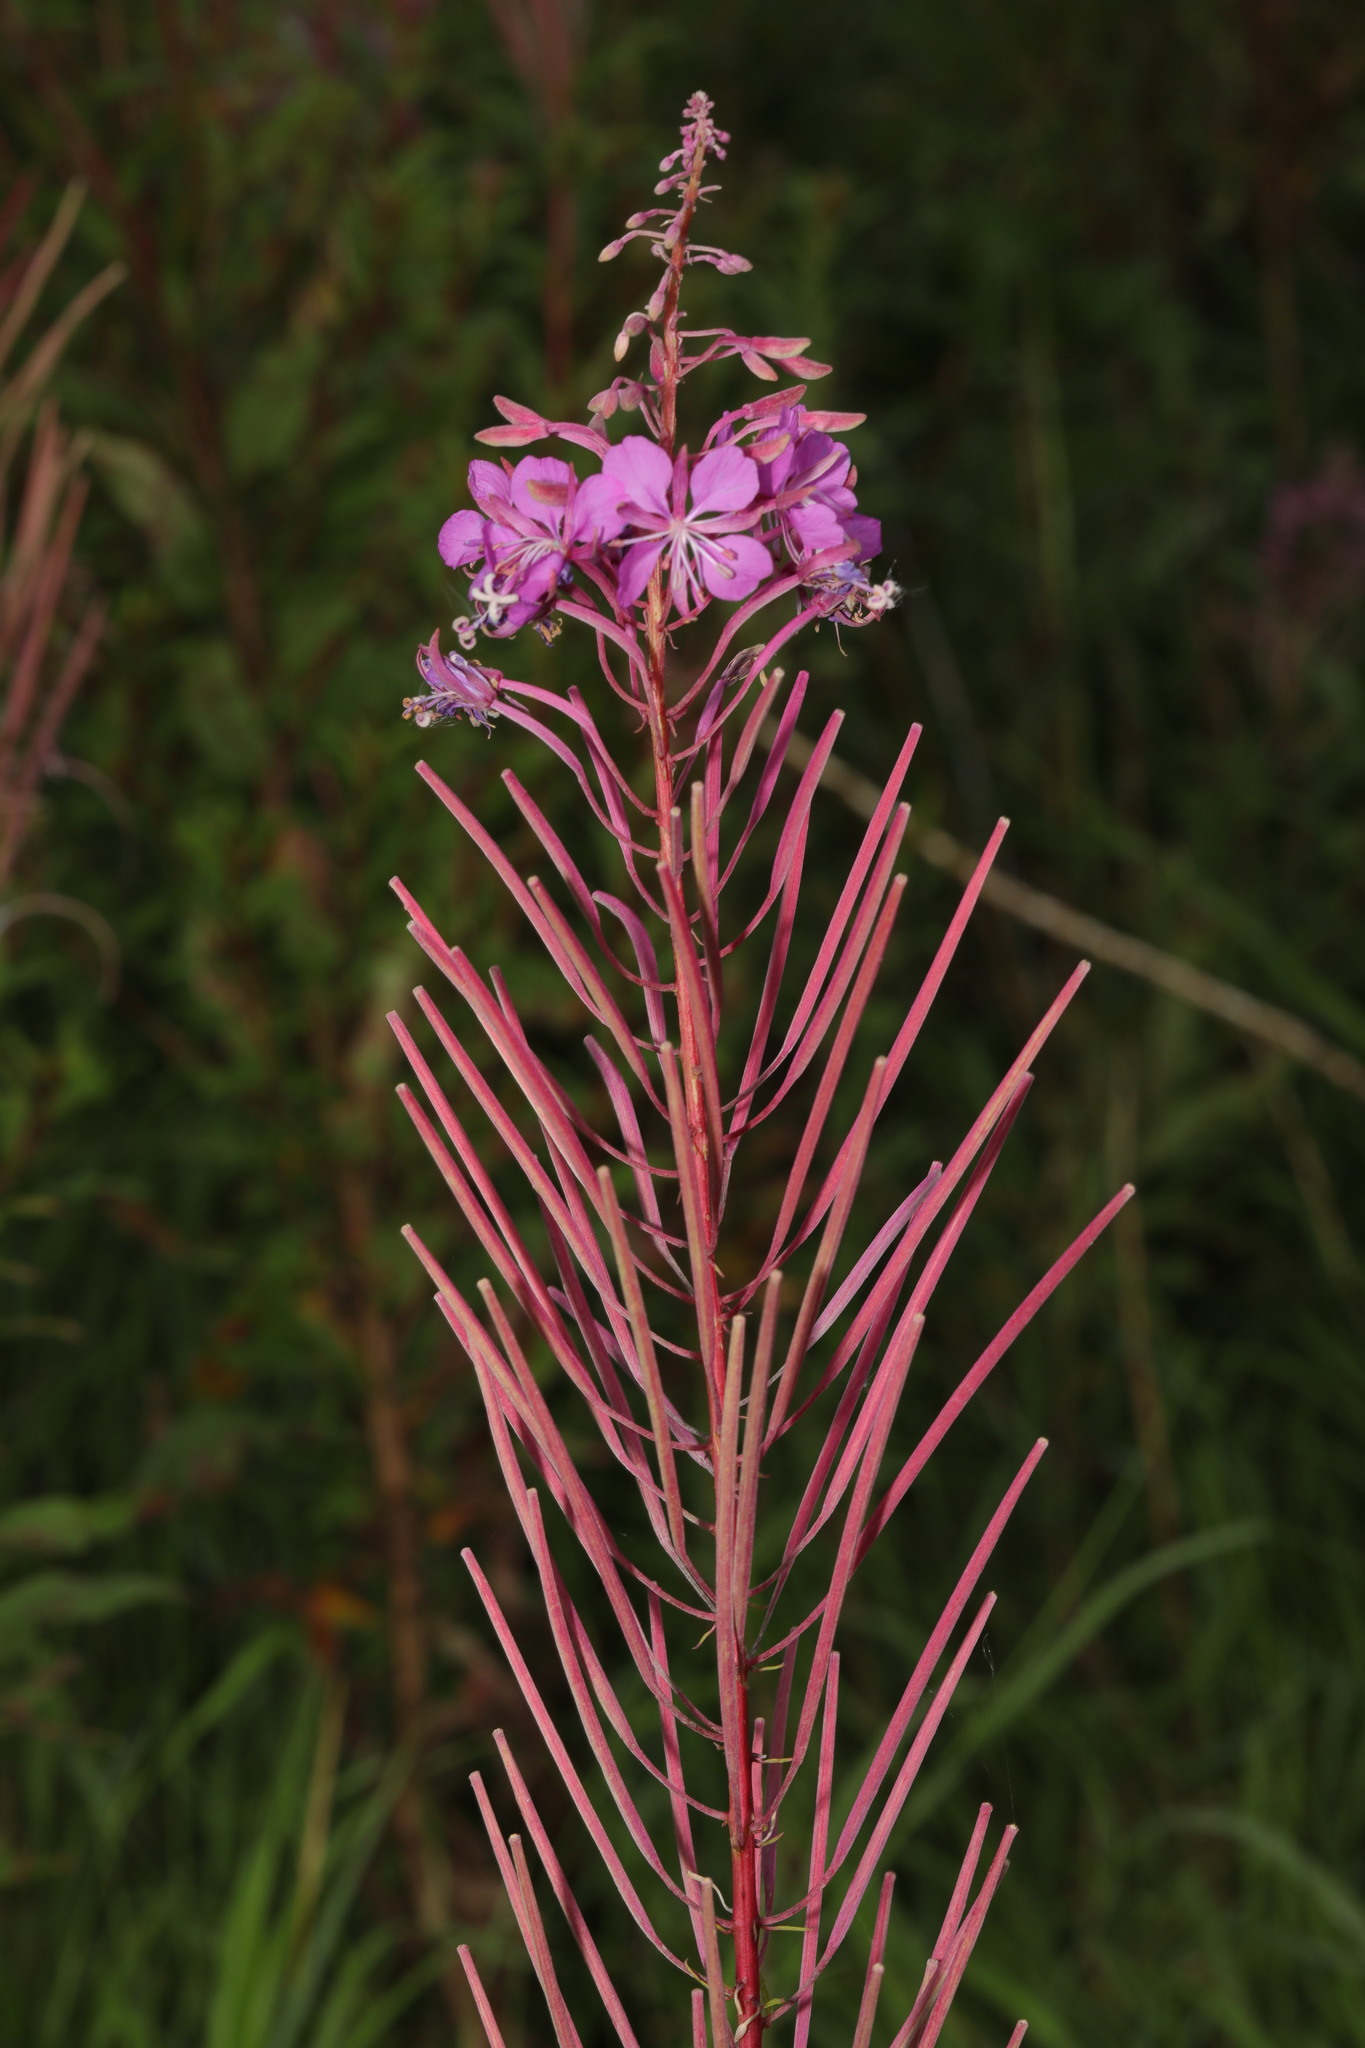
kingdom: Plantae
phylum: Tracheophyta
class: Magnoliopsida
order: Myrtales
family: Onagraceae
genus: Chamaenerion
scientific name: Chamaenerion angustifolium
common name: Fireweed
